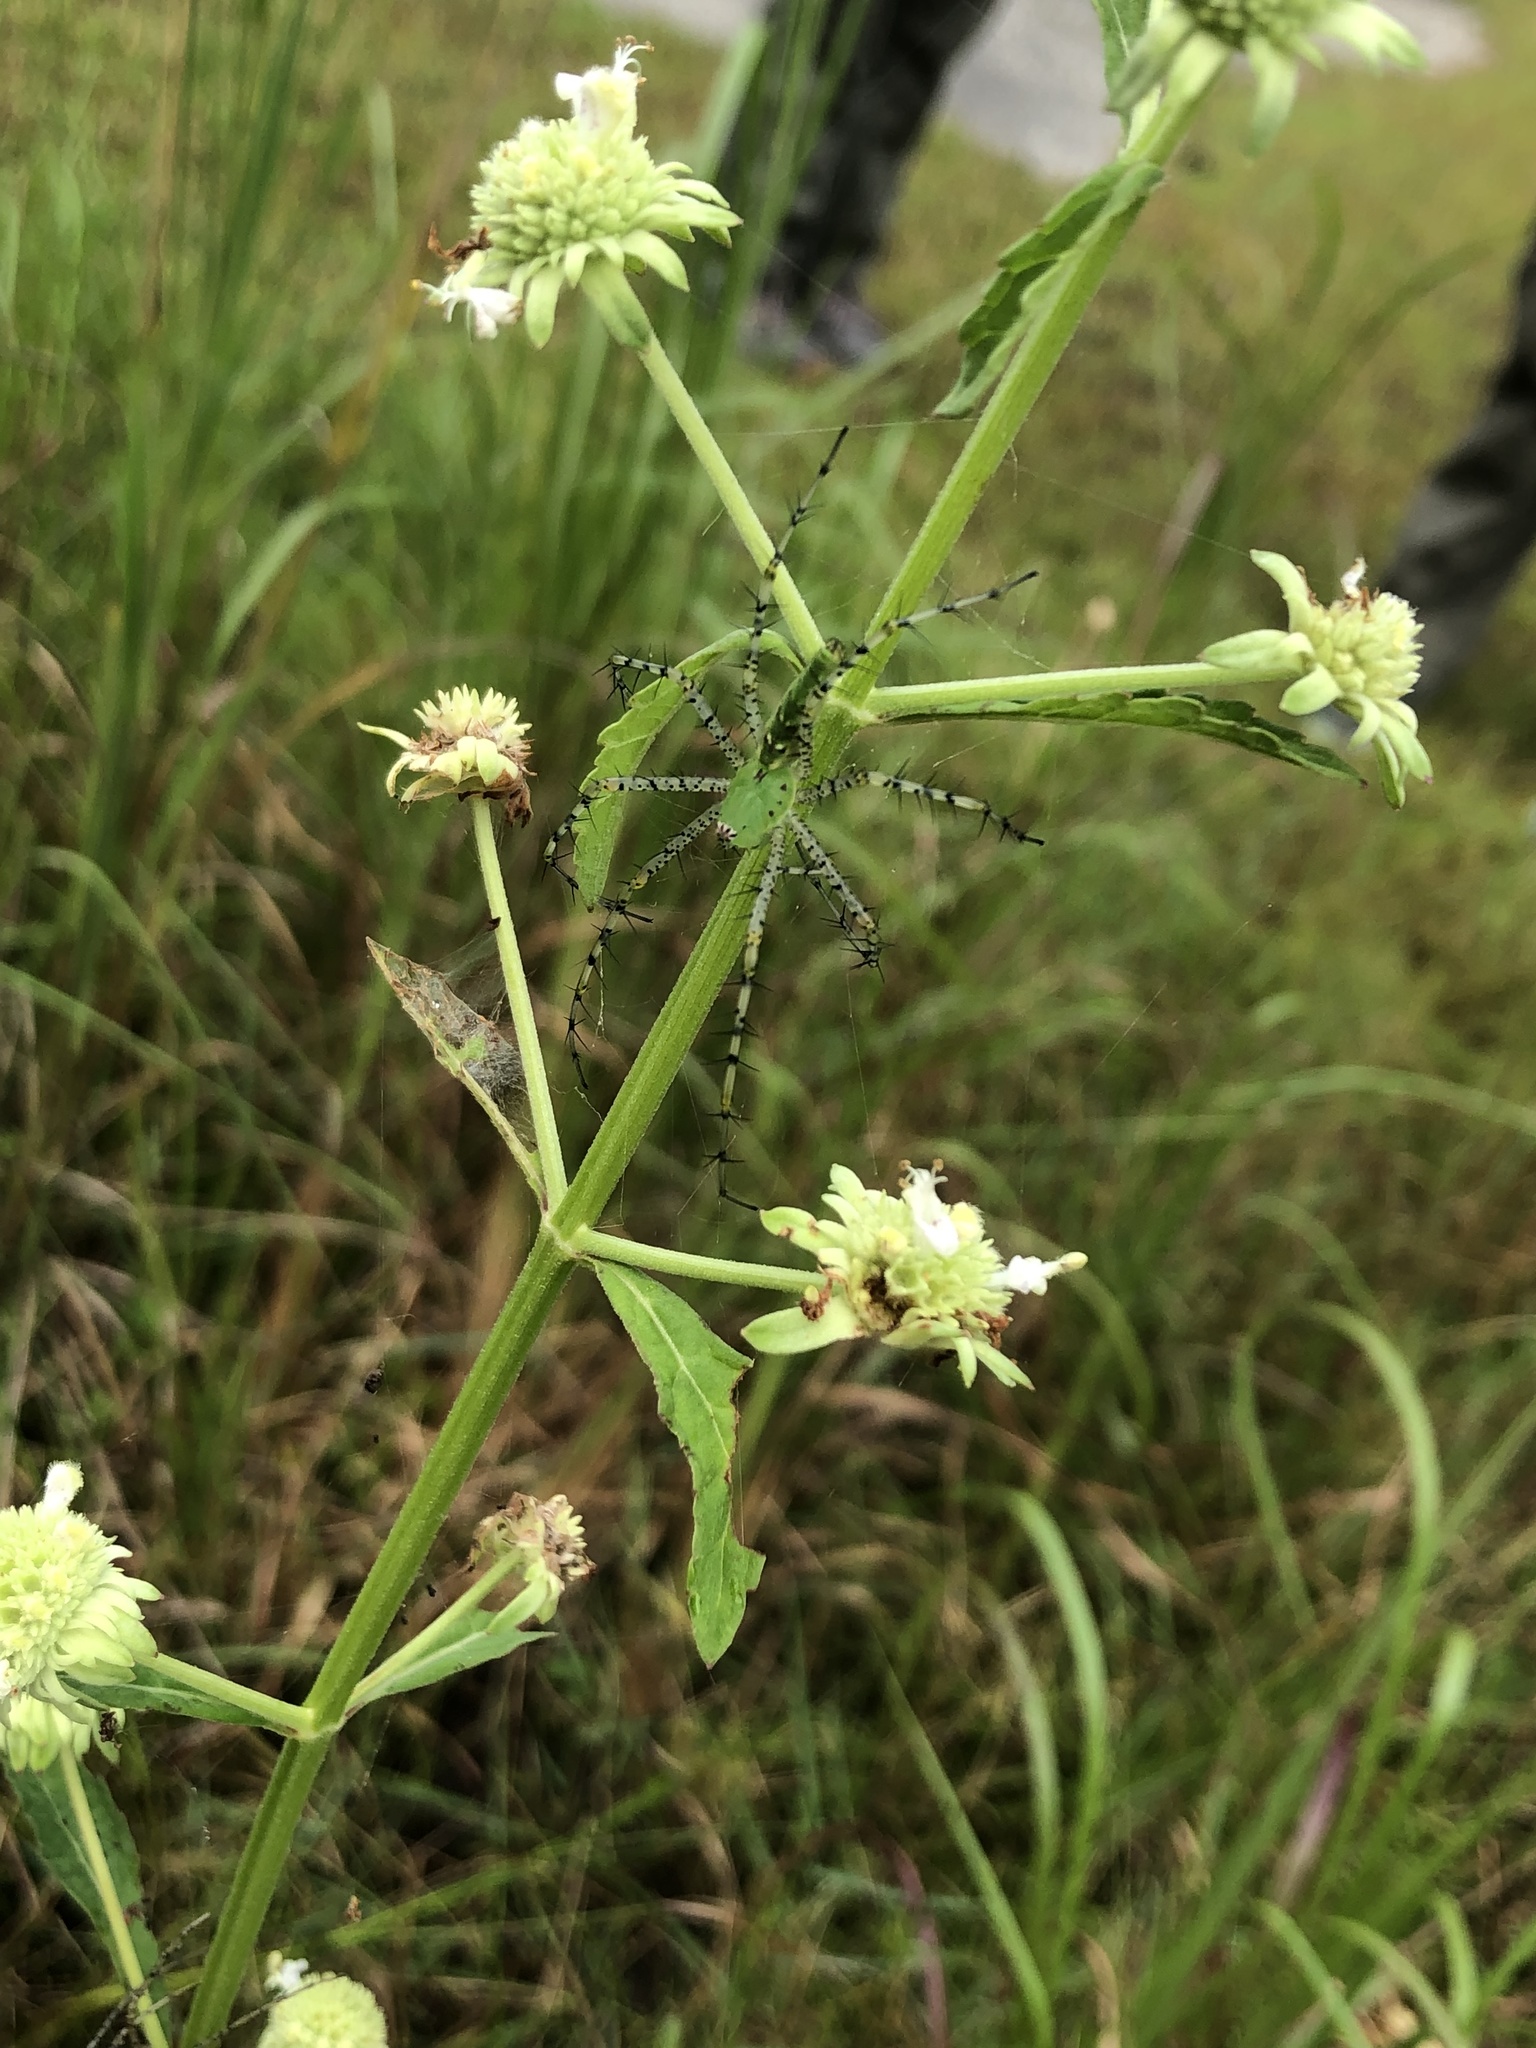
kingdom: Animalia
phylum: Arthropoda
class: Arachnida
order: Araneae
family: Oxyopidae
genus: Peucetia
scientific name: Peucetia viridans
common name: Lynx spiders
